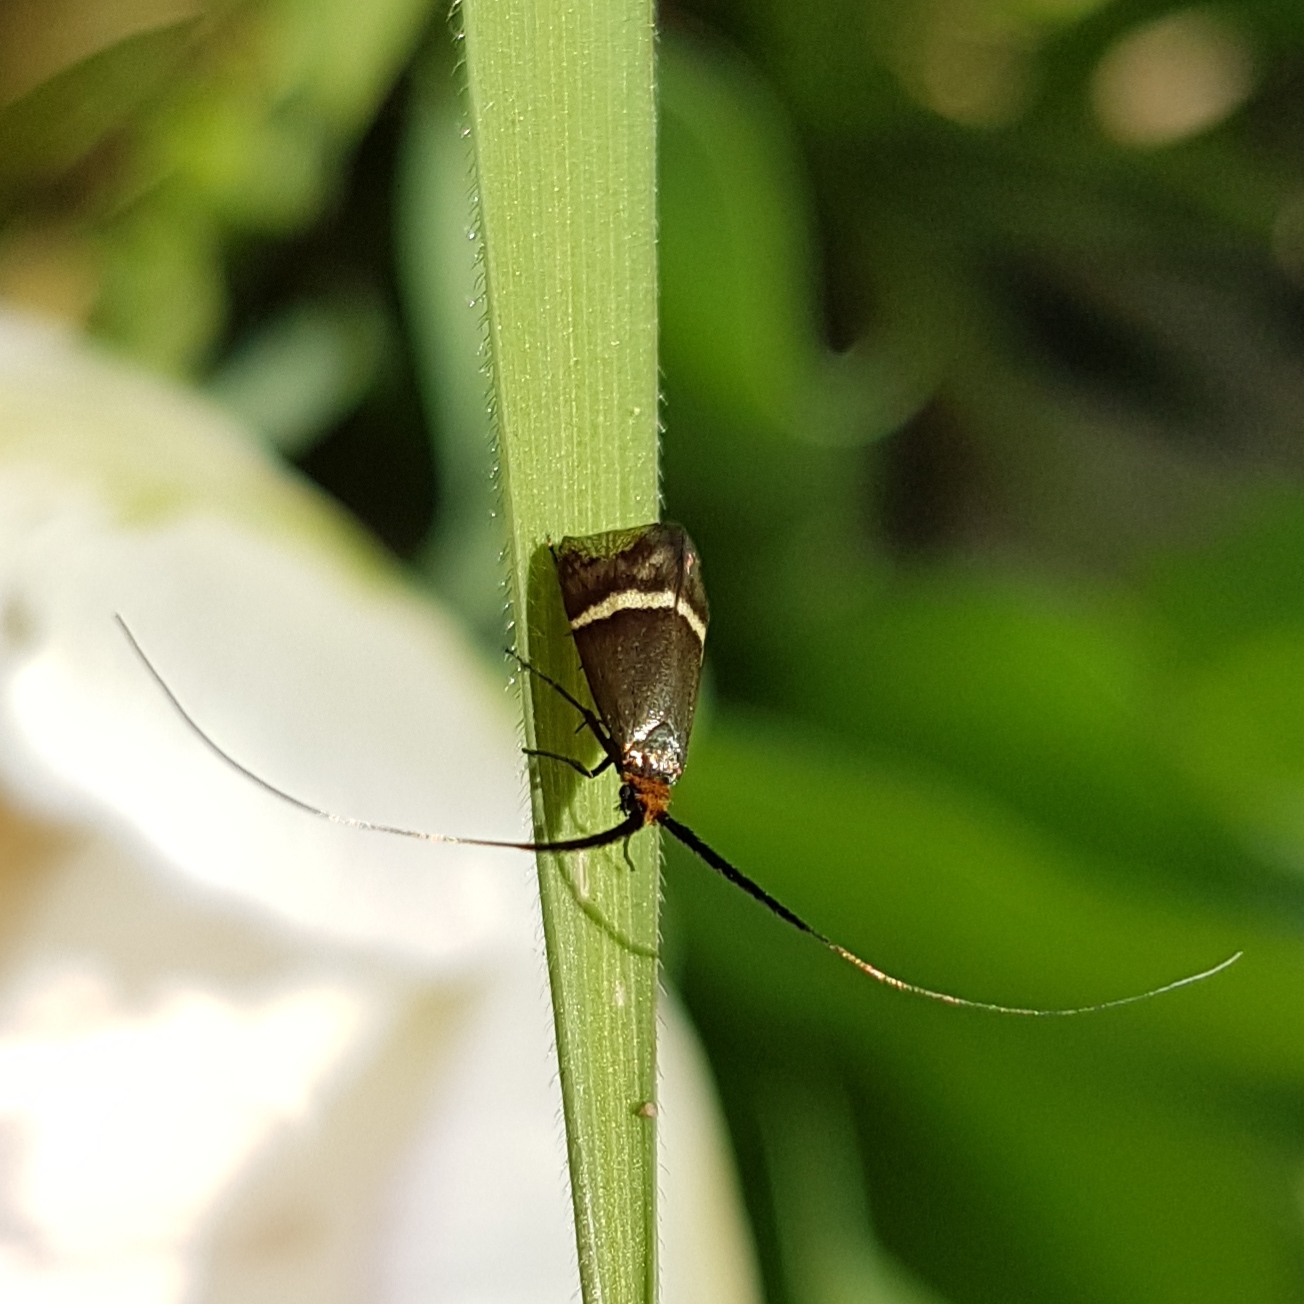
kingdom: Animalia
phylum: Arthropoda
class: Insecta
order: Lepidoptera
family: Adelidae
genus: Adela
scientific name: Adela australis
